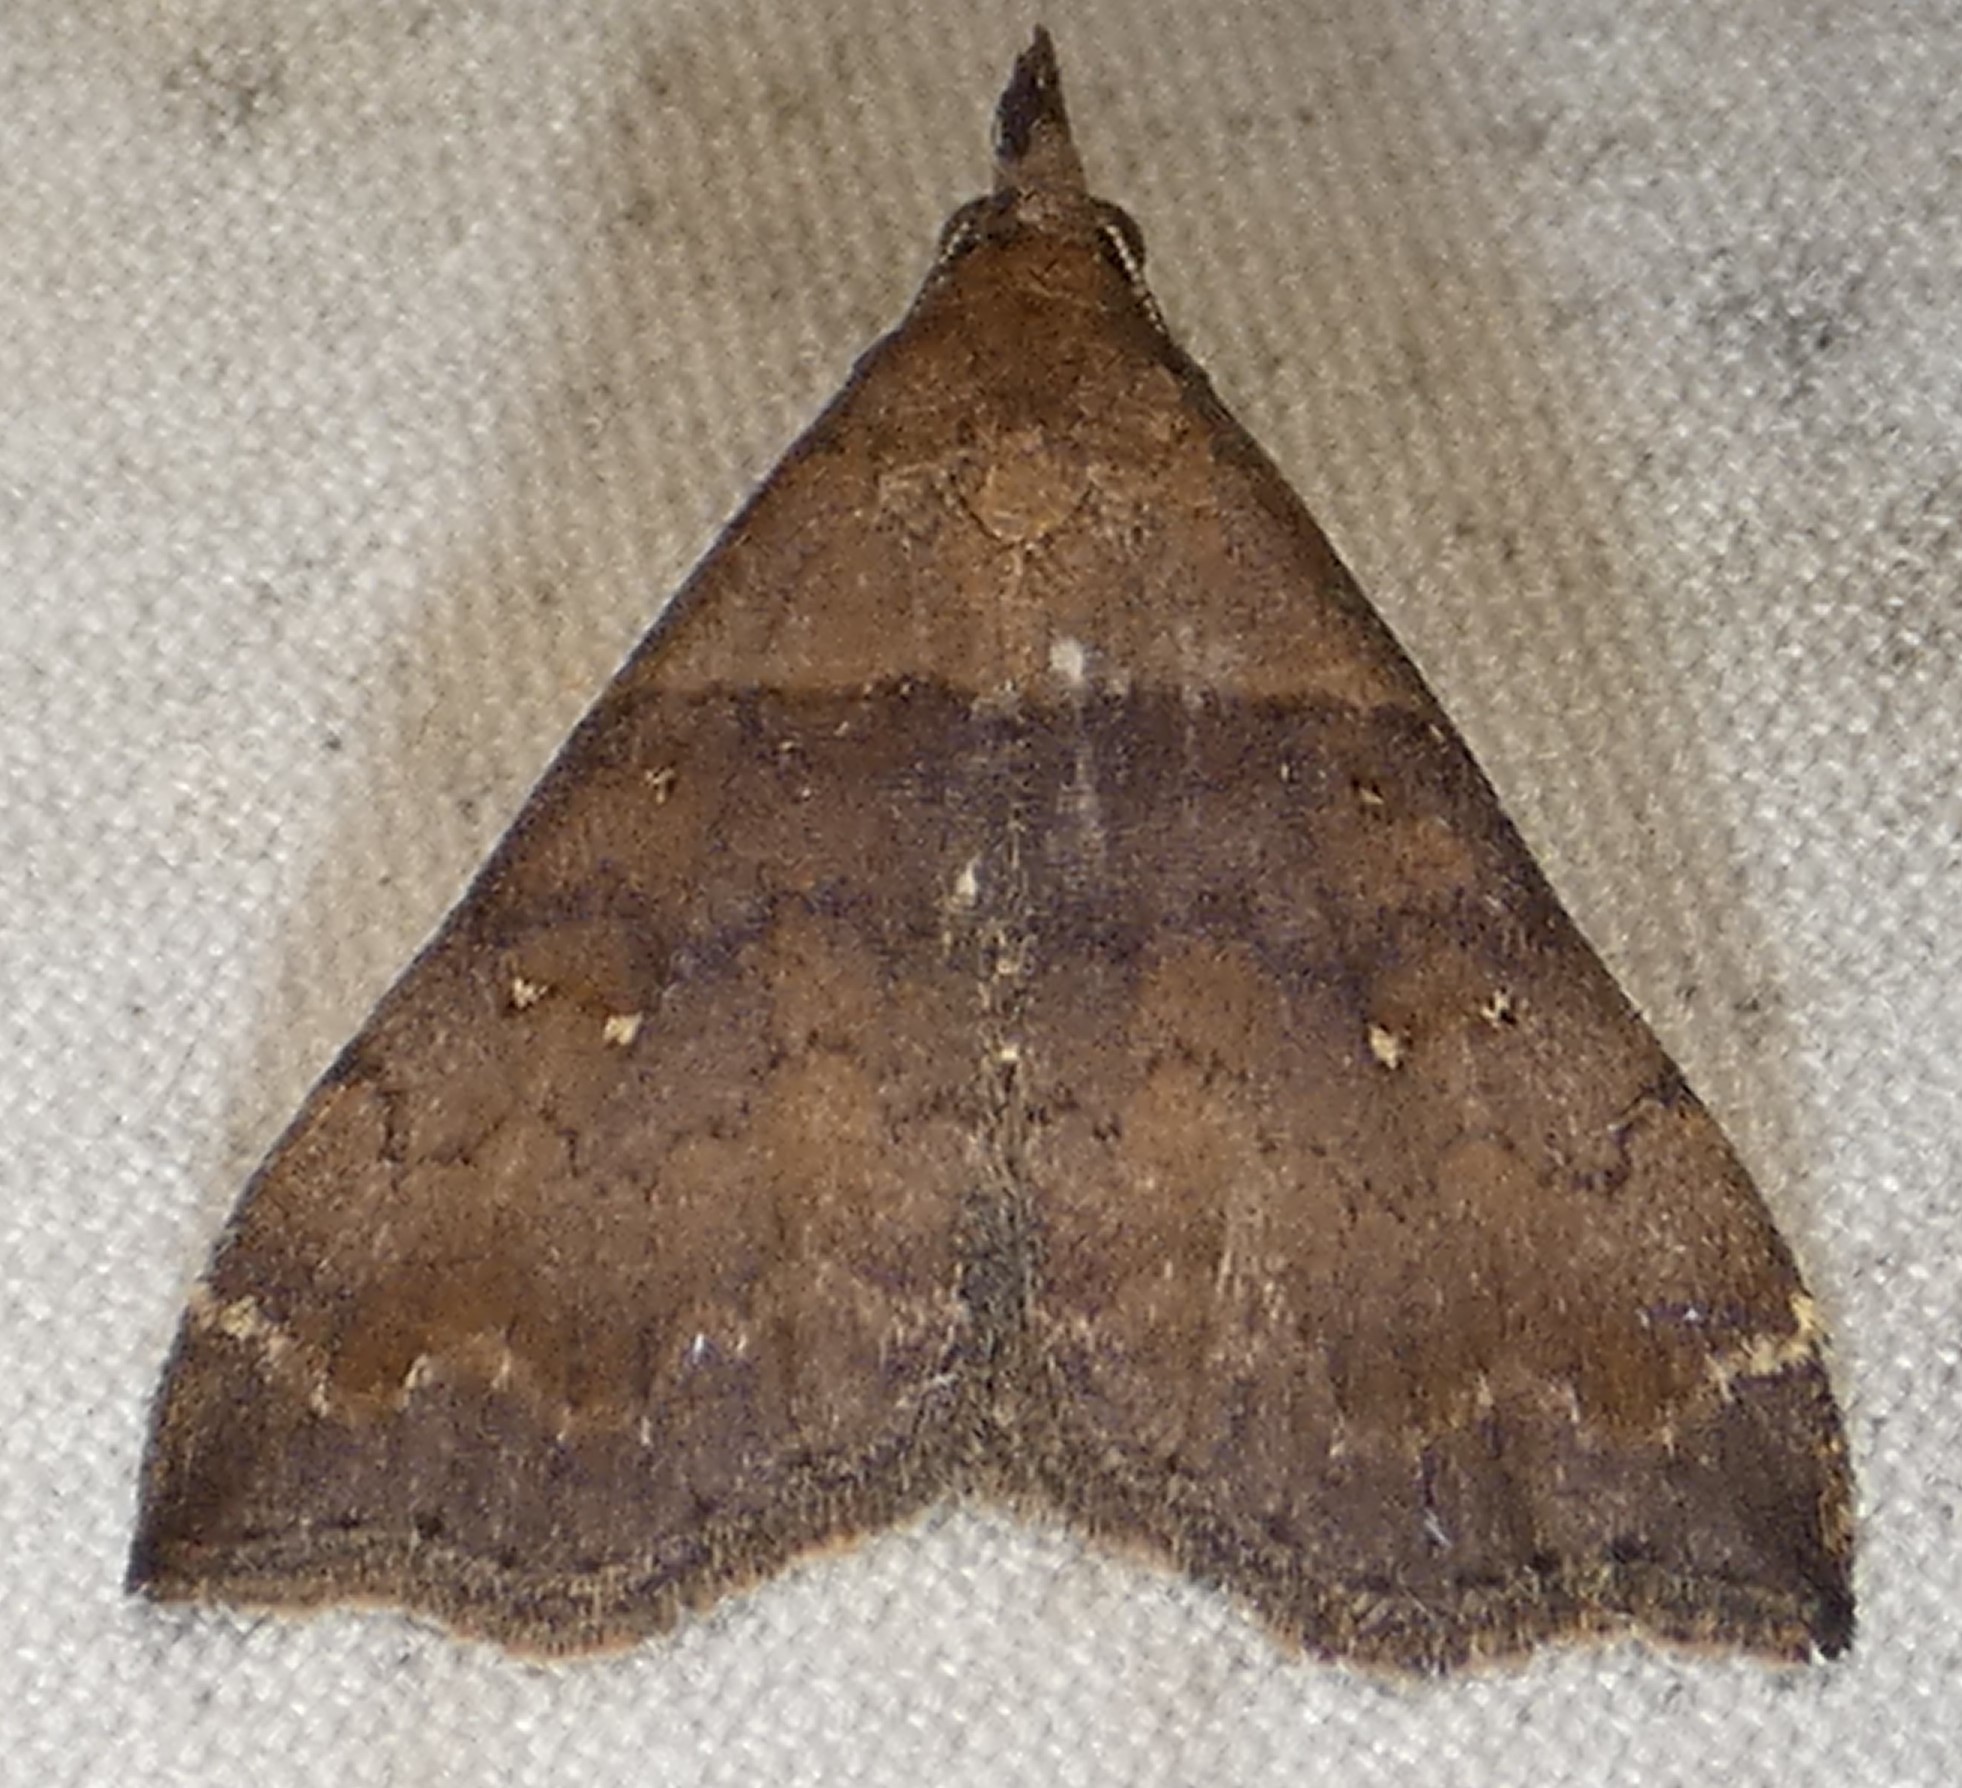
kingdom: Animalia
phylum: Arthropoda
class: Insecta
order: Lepidoptera
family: Erebidae
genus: Lascoria
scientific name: Lascoria ambigualis
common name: Ambiguous moth
